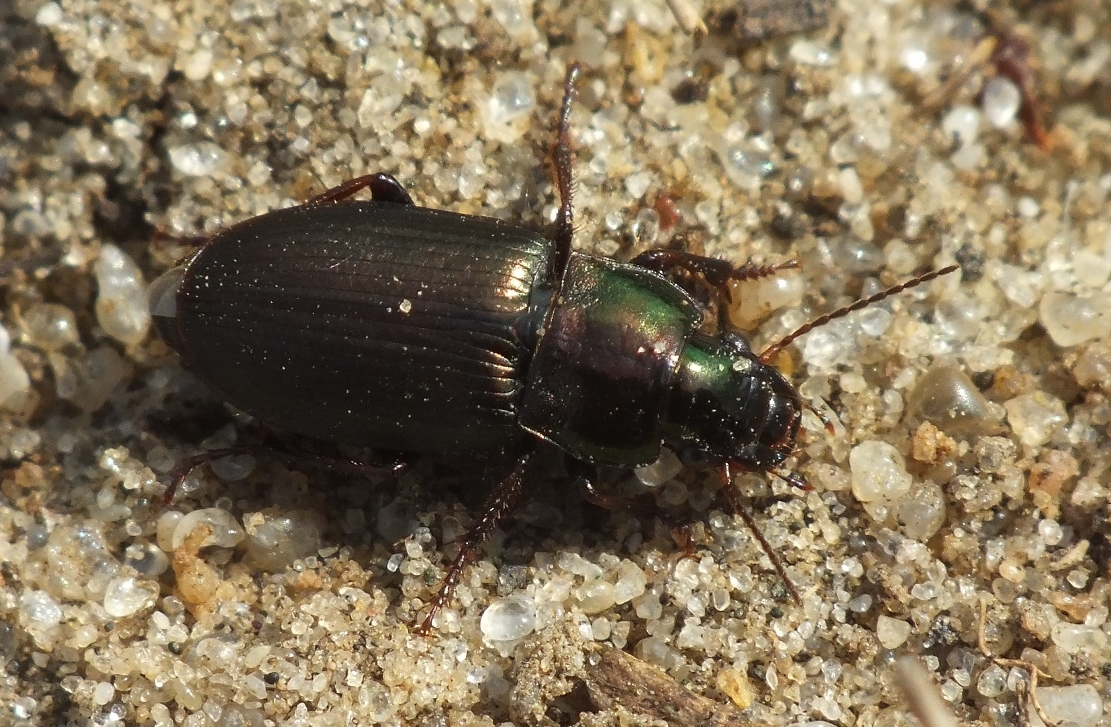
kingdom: Animalia
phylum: Arthropoda
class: Insecta
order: Coleoptera
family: Carabidae
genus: Harpalus
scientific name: Harpalus distinguendus
